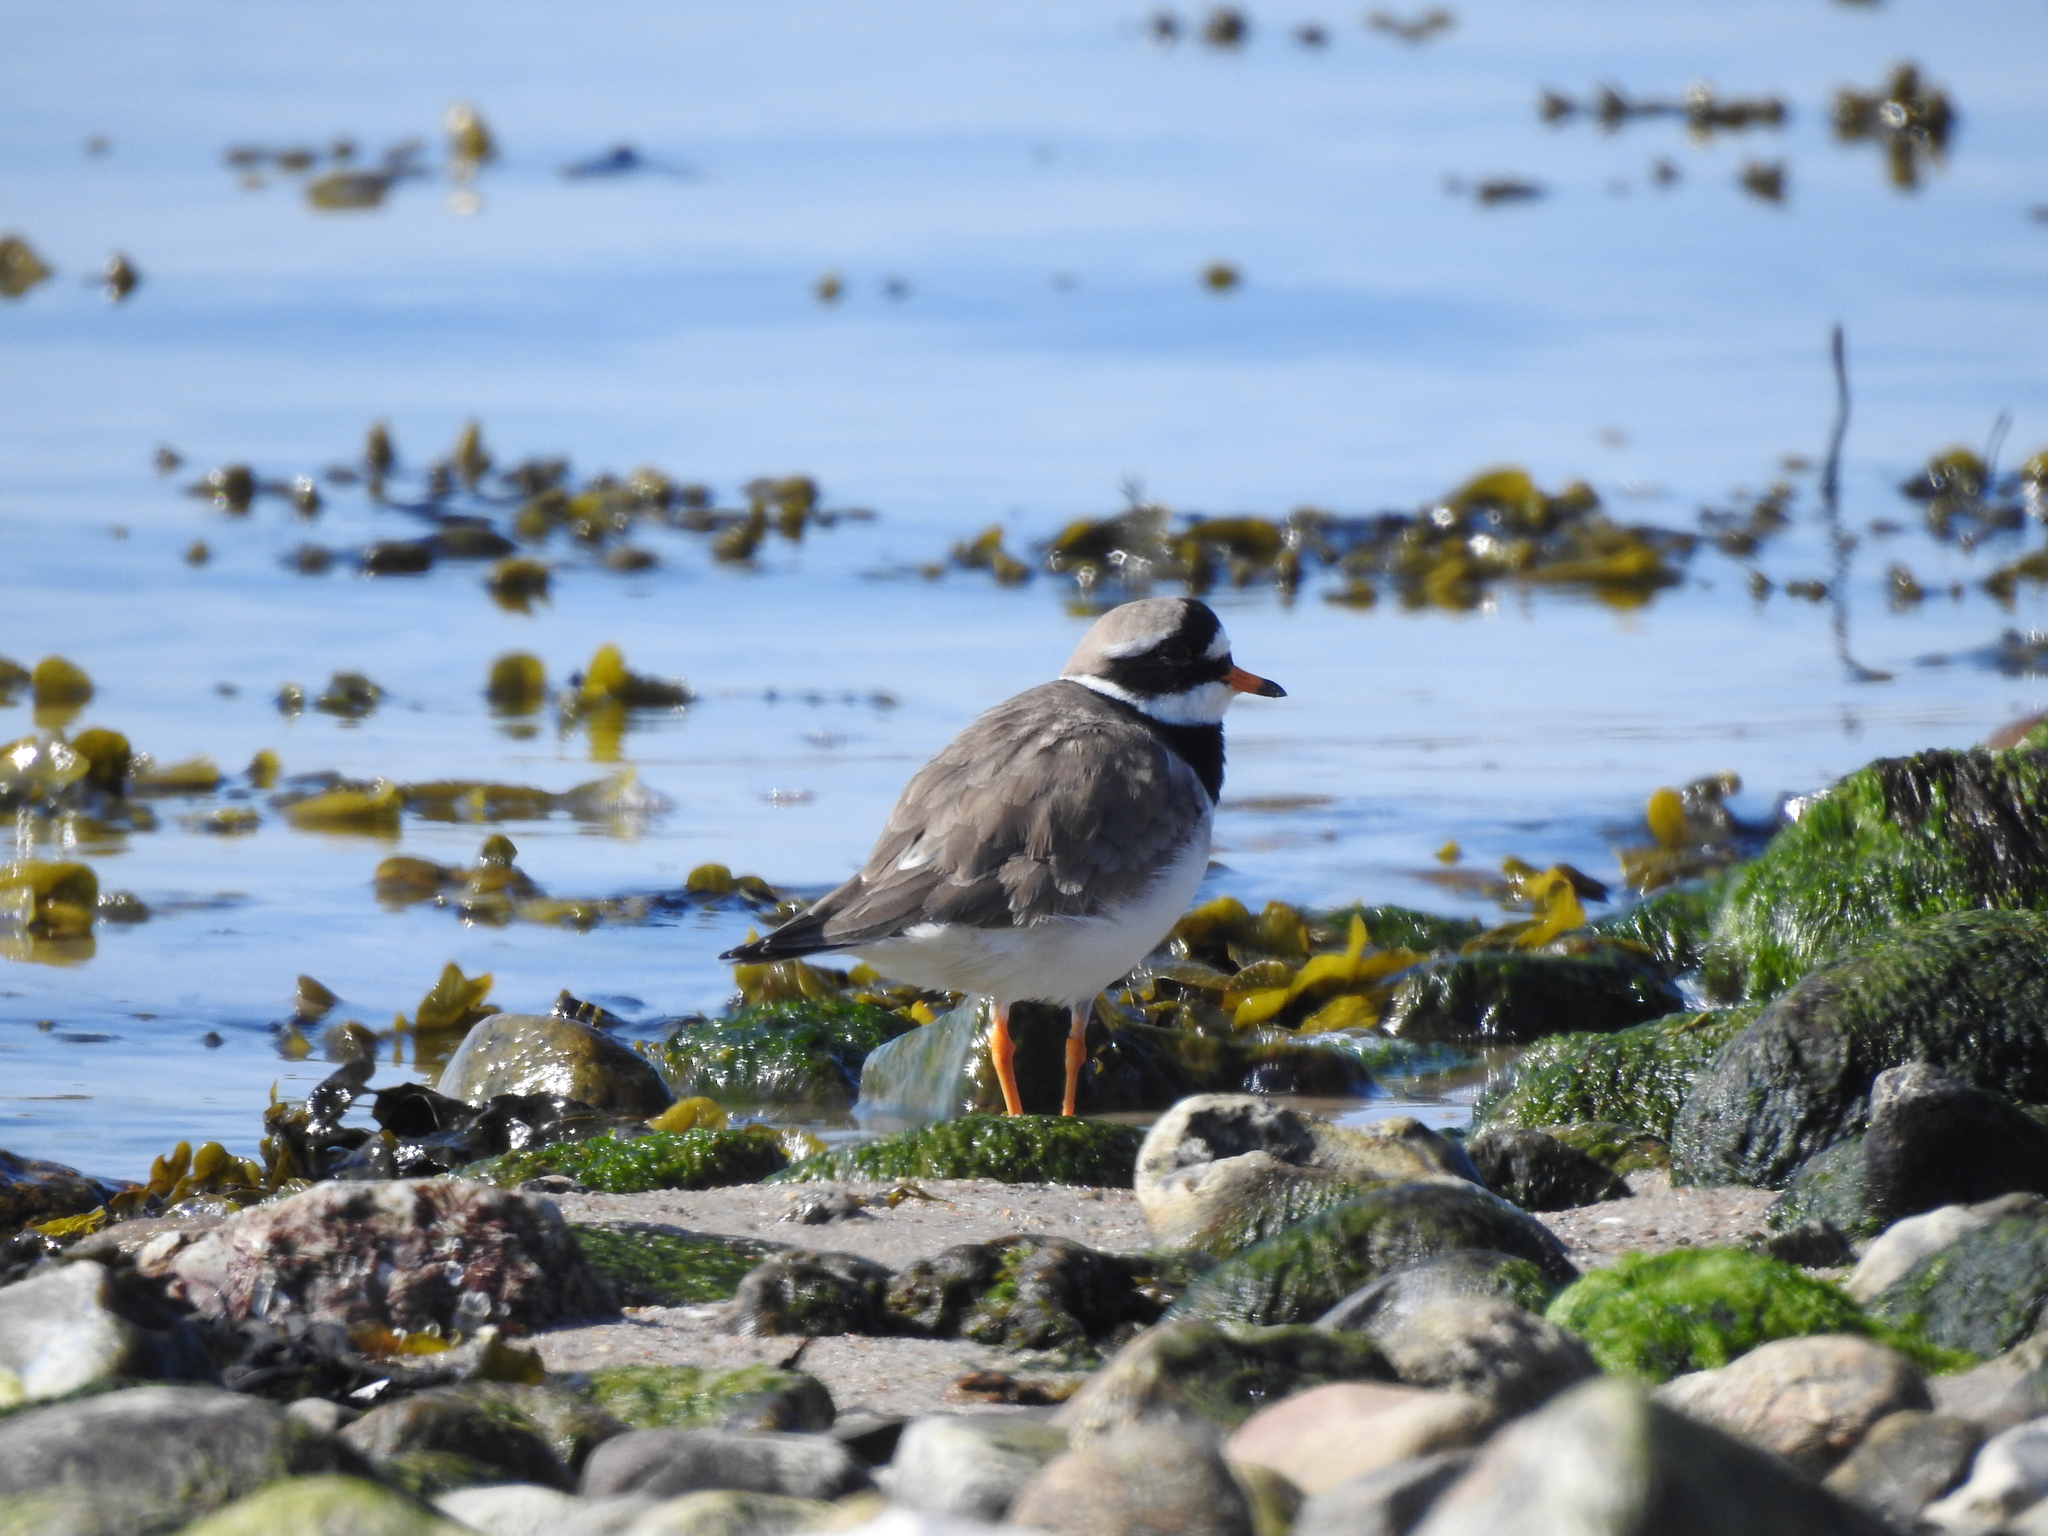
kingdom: Animalia
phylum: Chordata
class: Aves
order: Charadriiformes
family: Charadriidae
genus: Charadrius
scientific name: Charadrius hiaticula
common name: Common ringed plover
